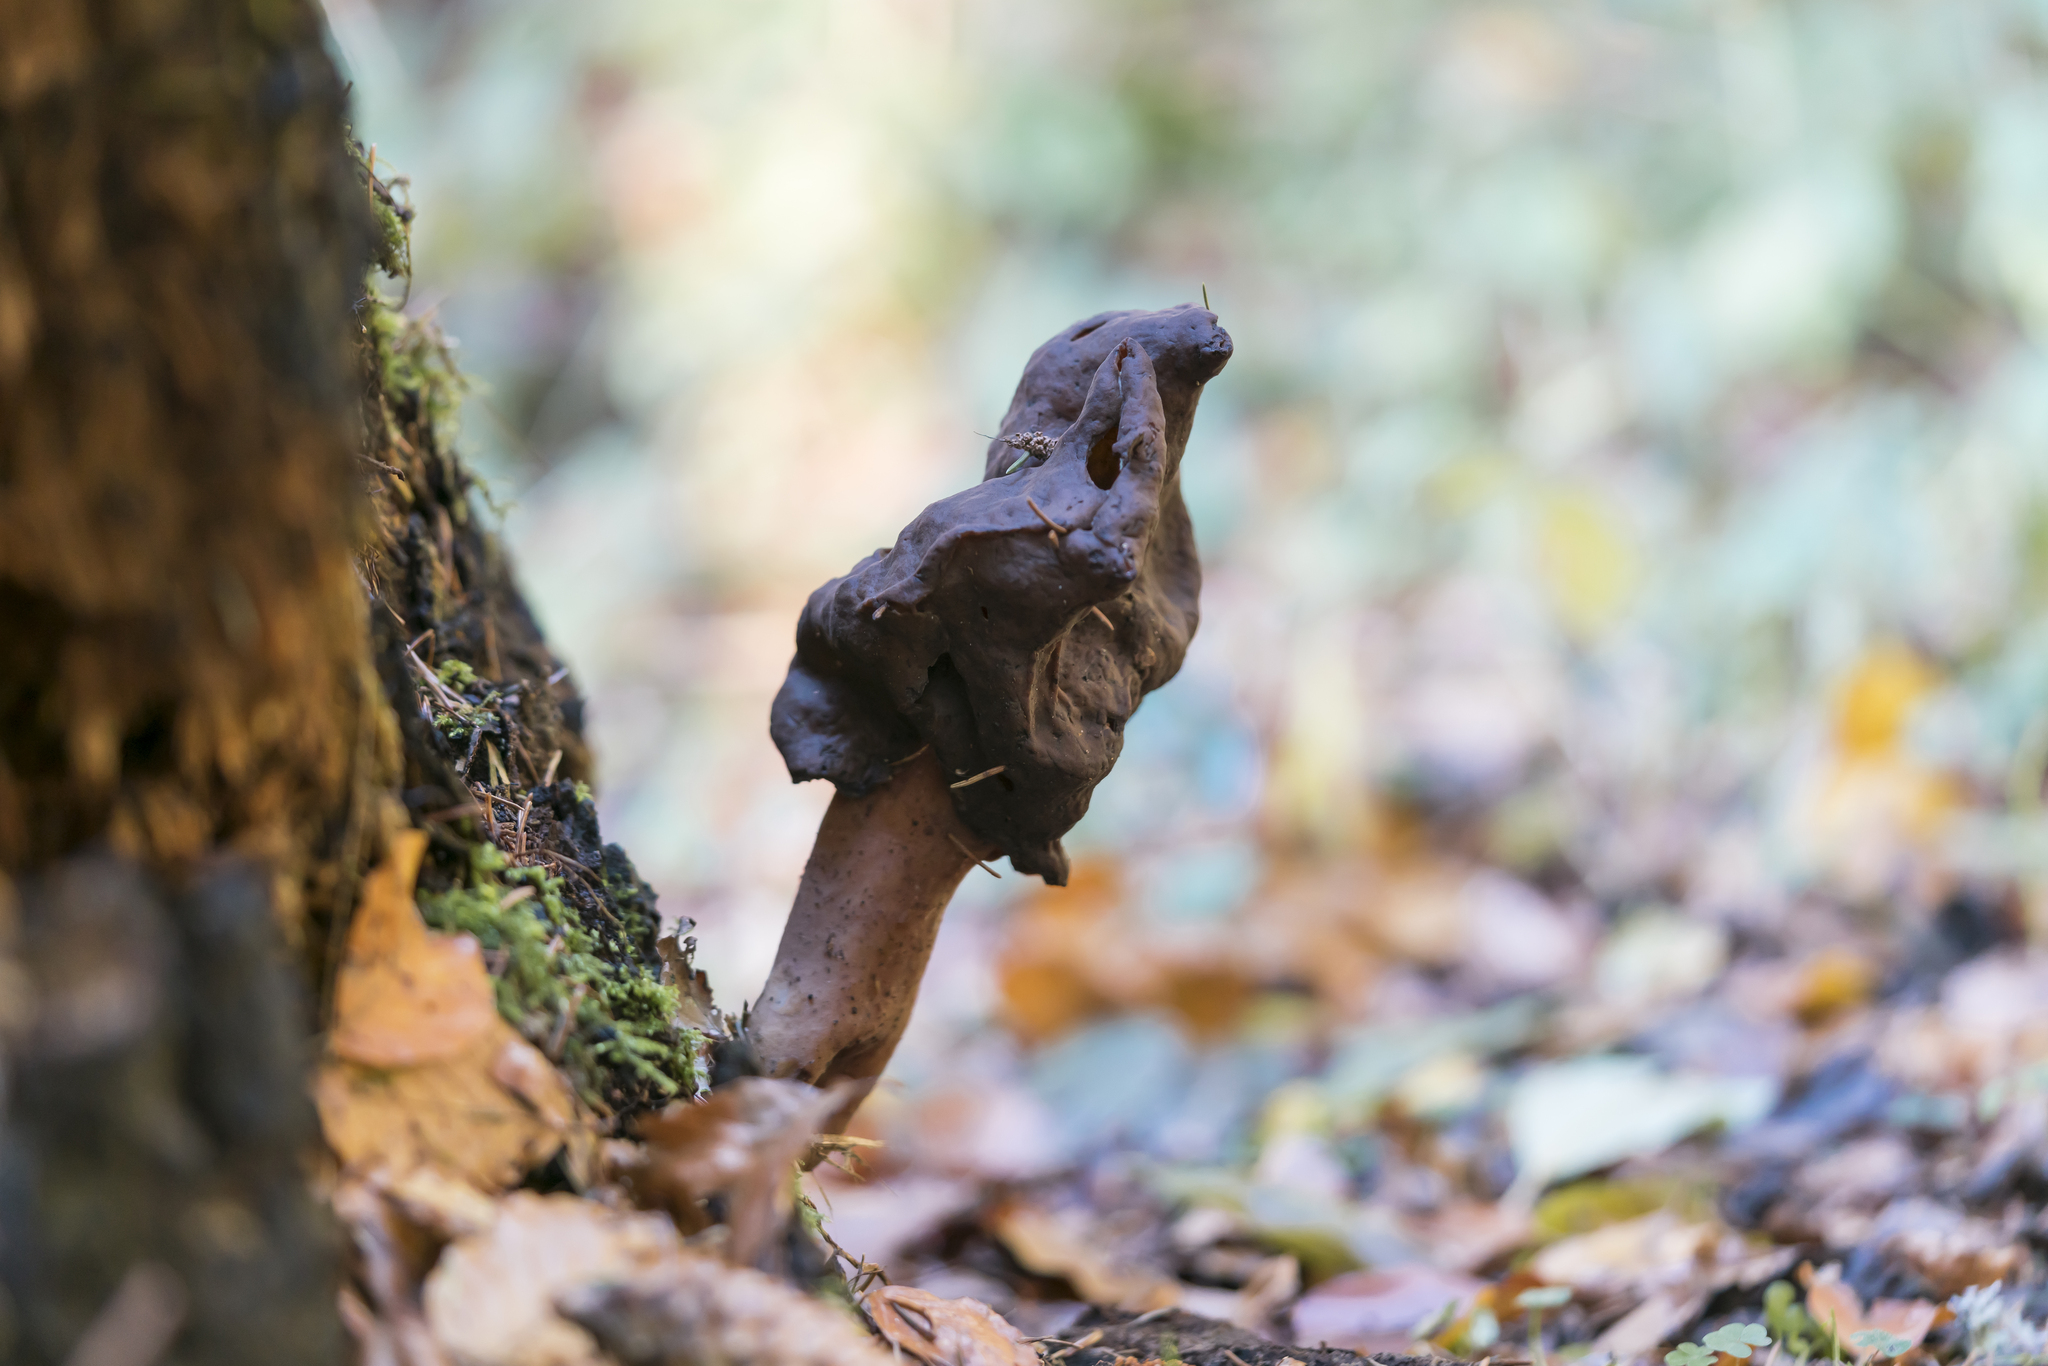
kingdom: Fungi
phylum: Ascomycota
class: Pezizomycetes
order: Pezizales
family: Discinaceae
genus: Gyromitra
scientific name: Gyromitra infula
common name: Pouched false morel
